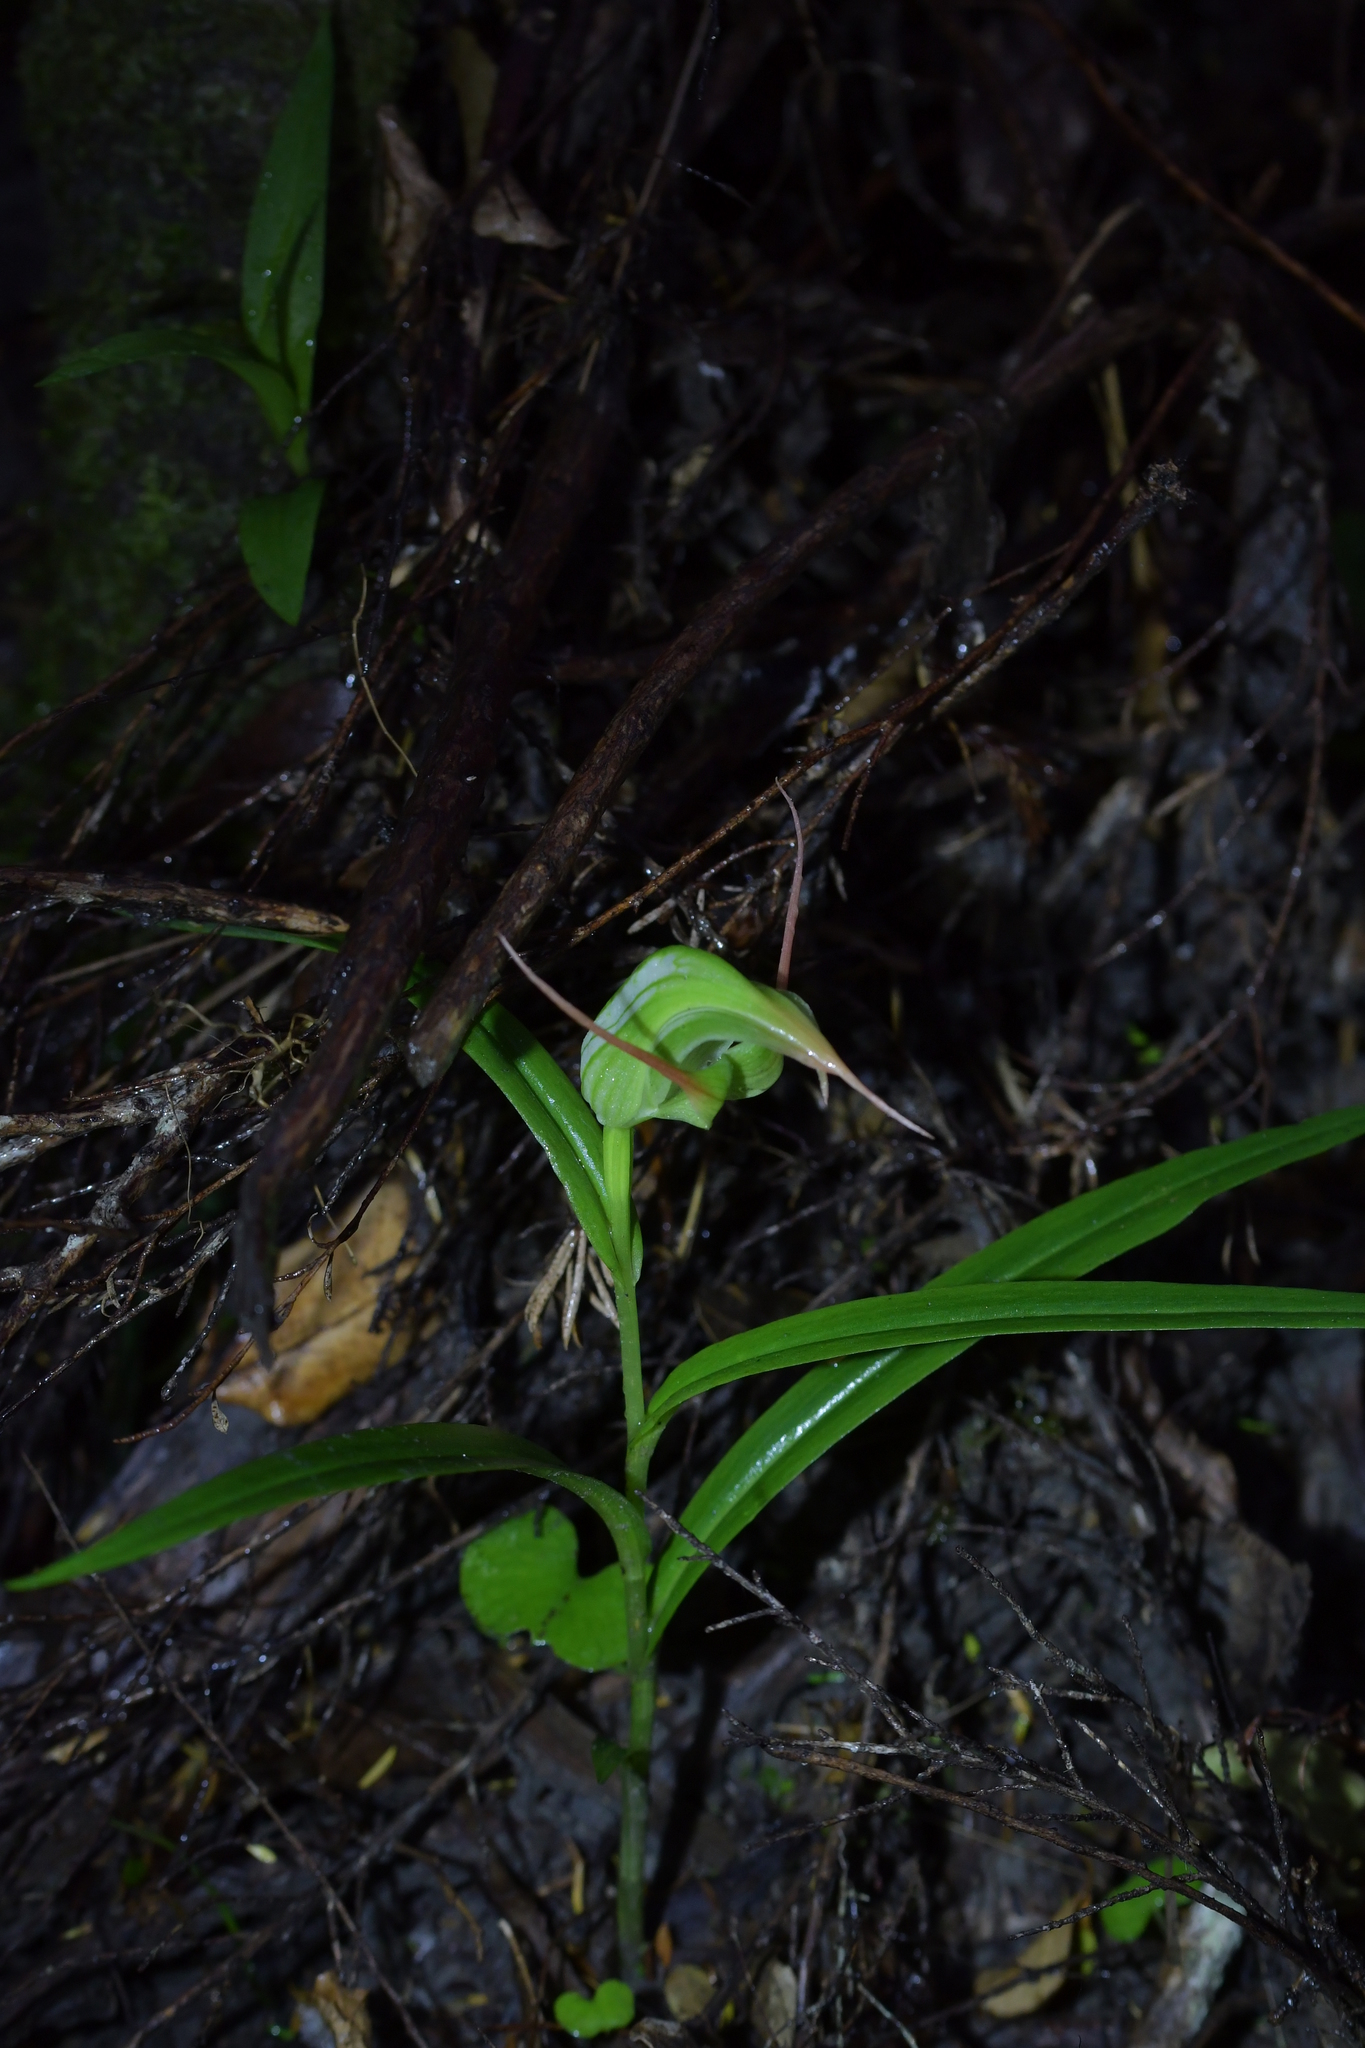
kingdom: Plantae
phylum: Tracheophyta
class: Liliopsida
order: Asparagales
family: Orchidaceae
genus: Pterostylis
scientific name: Pterostylis banksii
